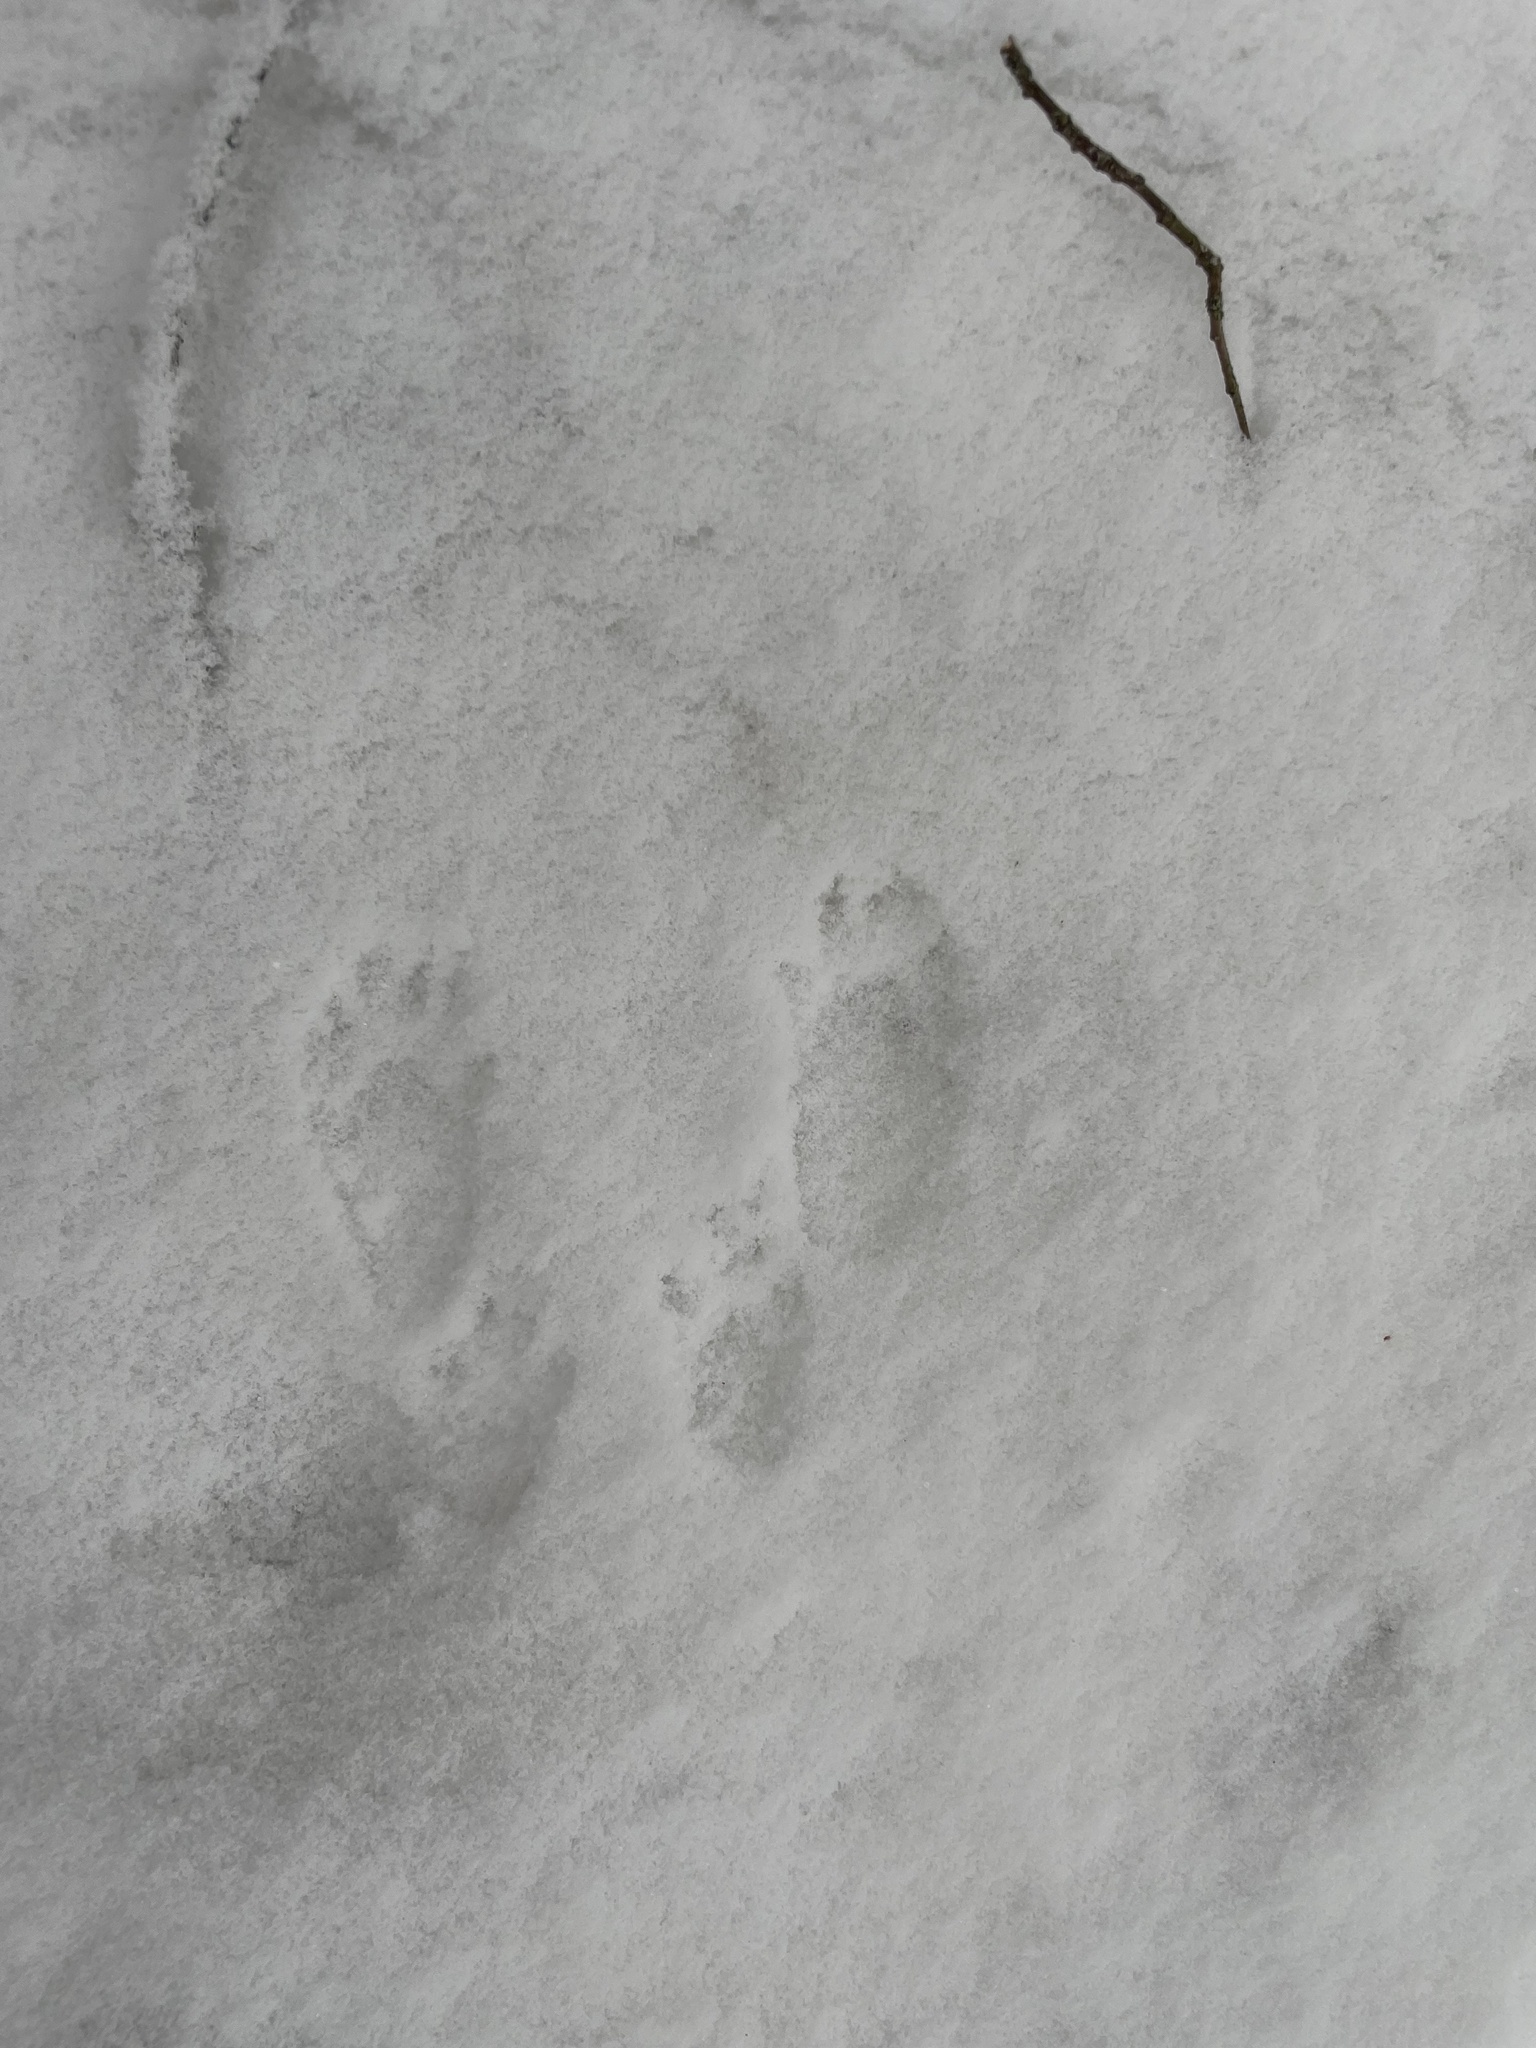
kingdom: Animalia
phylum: Chordata
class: Mammalia
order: Rodentia
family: Sciuridae
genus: Sciurus
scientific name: Sciurus vulgaris
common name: Eurasian red squirrel
